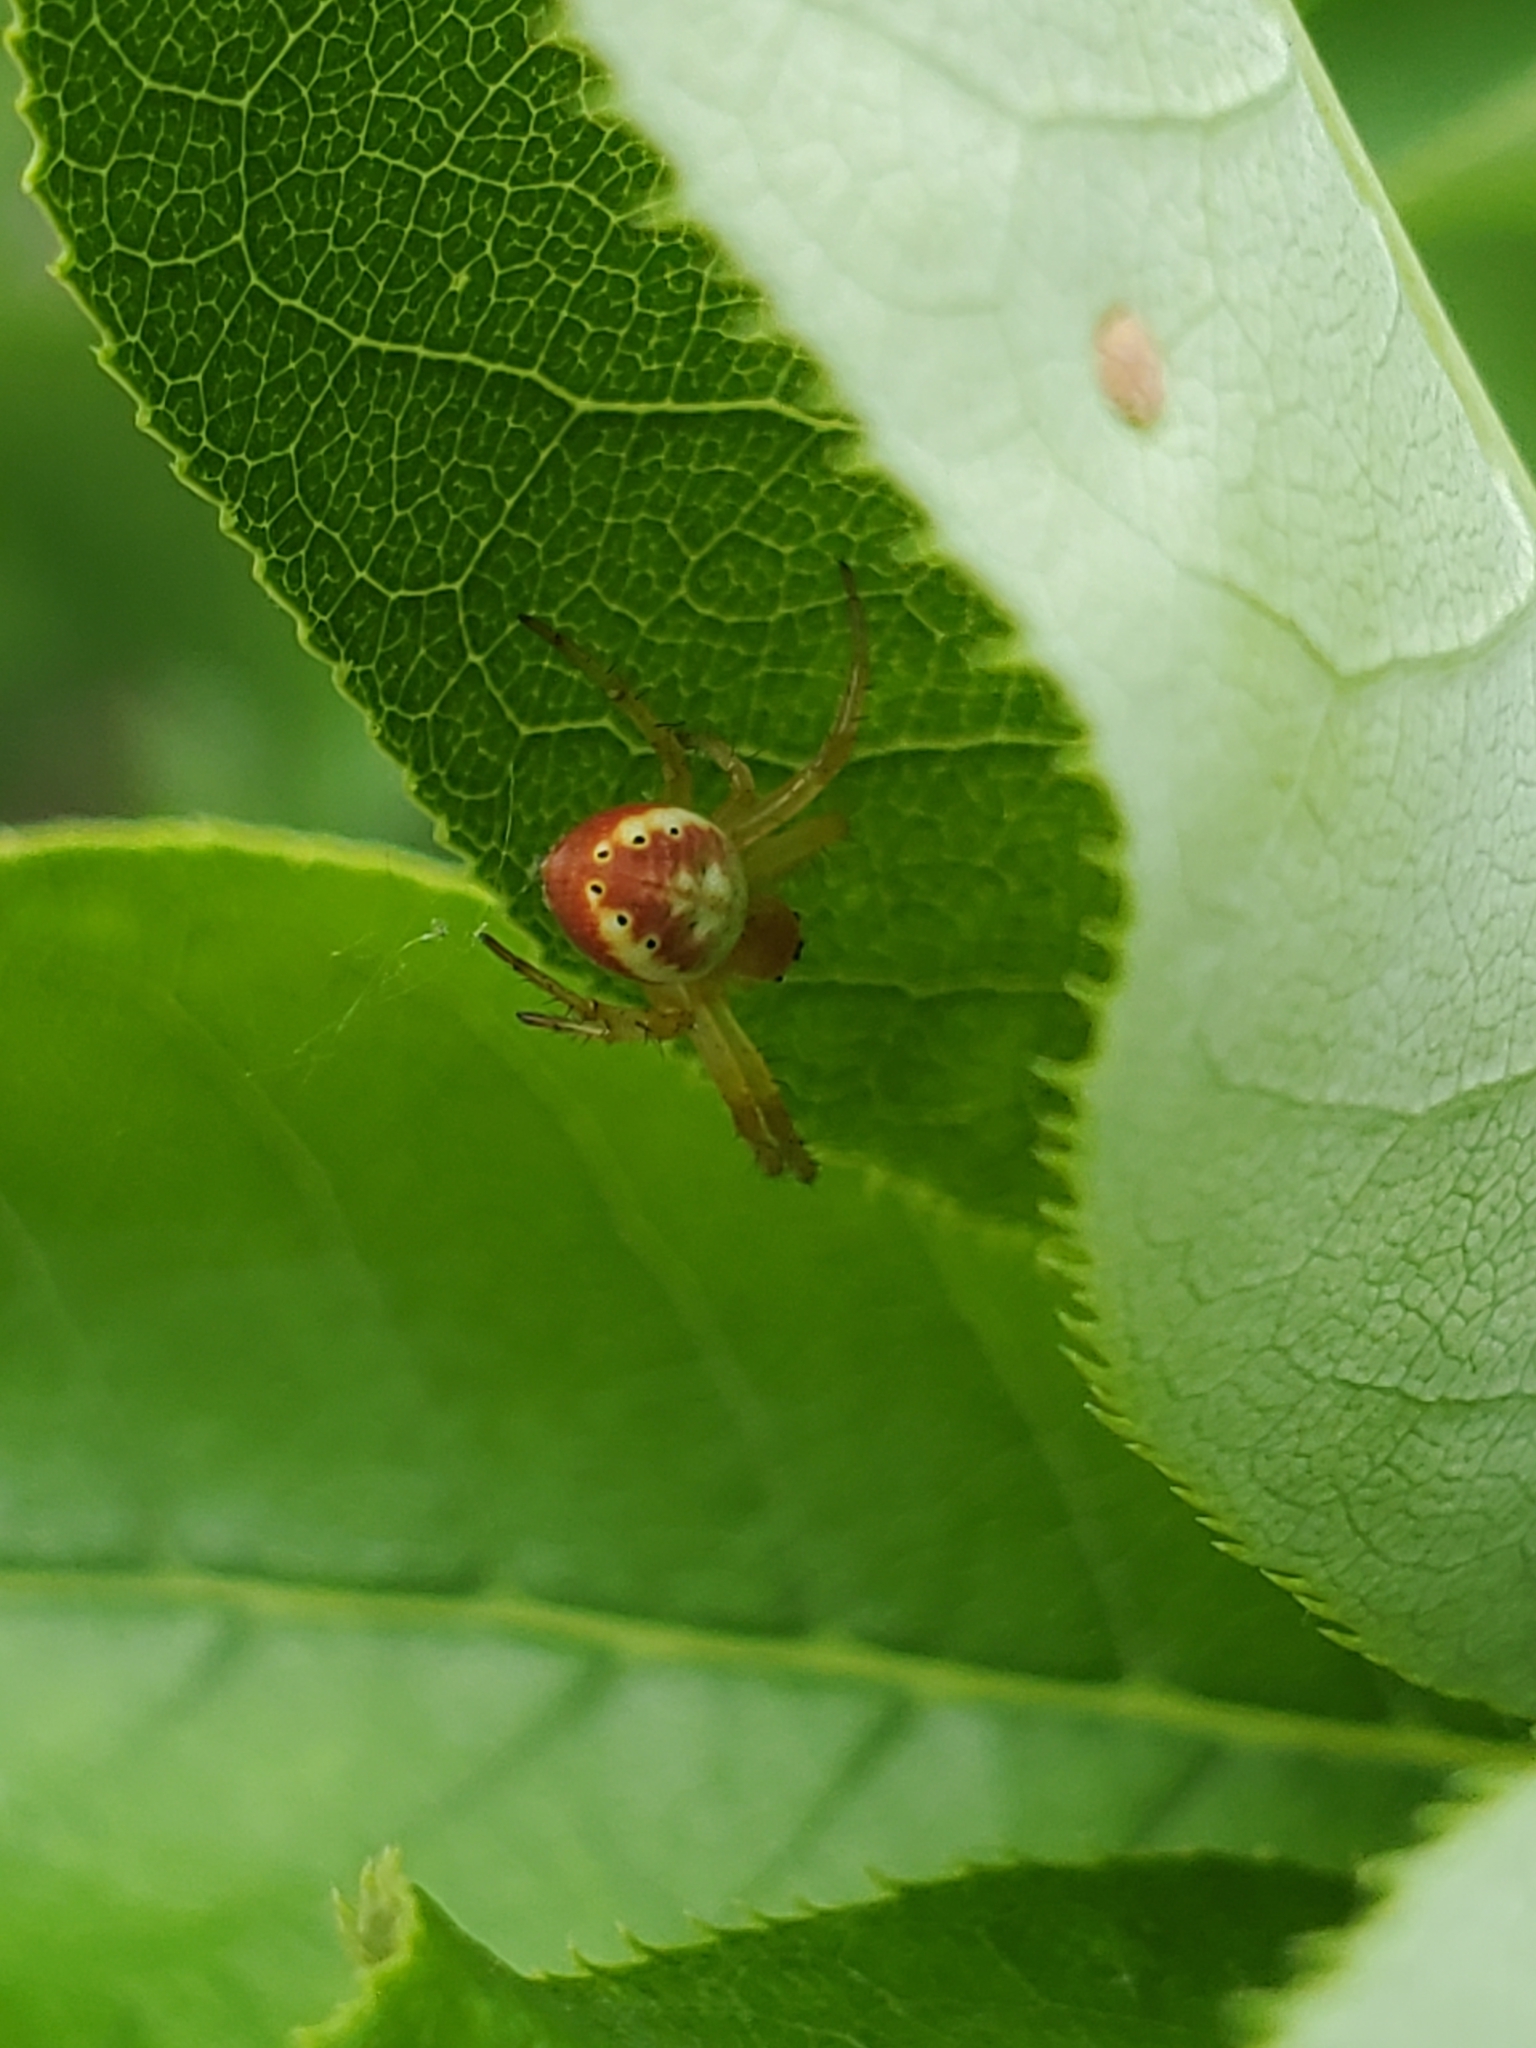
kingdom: Animalia
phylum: Arthropoda
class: Arachnida
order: Araneae
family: Araneidae
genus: Araniella
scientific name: Araniella displicata
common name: Sixspotted orb weaver
